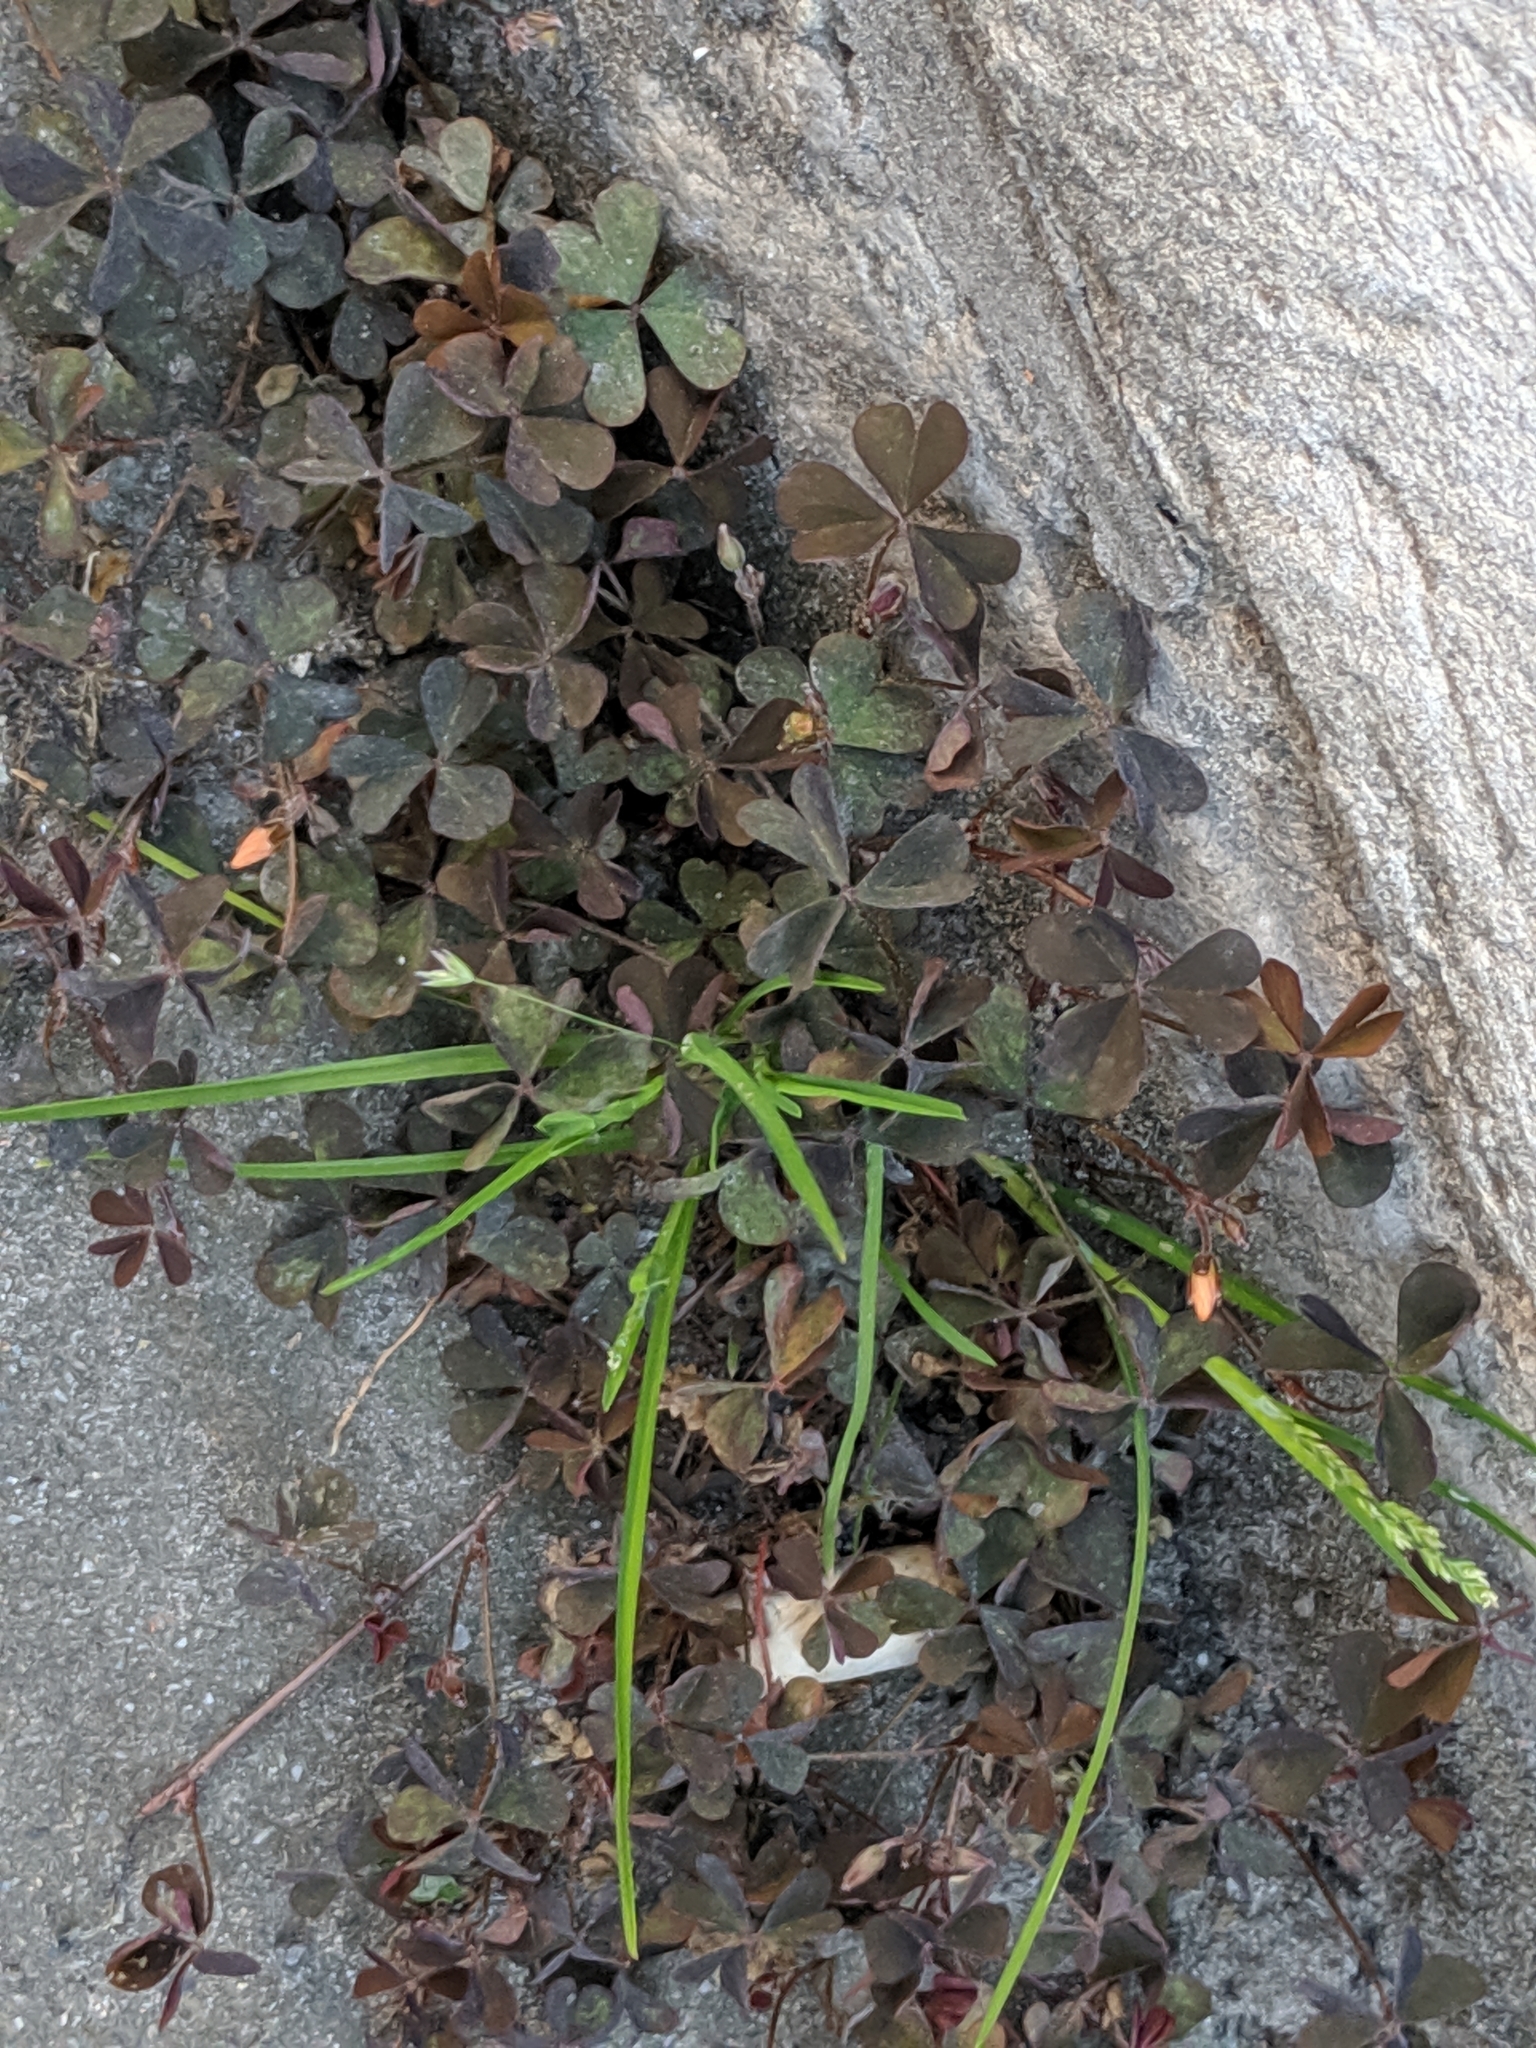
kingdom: Plantae
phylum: Tracheophyta
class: Magnoliopsida
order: Oxalidales
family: Oxalidaceae
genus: Oxalis
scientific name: Oxalis corniculata
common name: Procumbent yellow-sorrel
